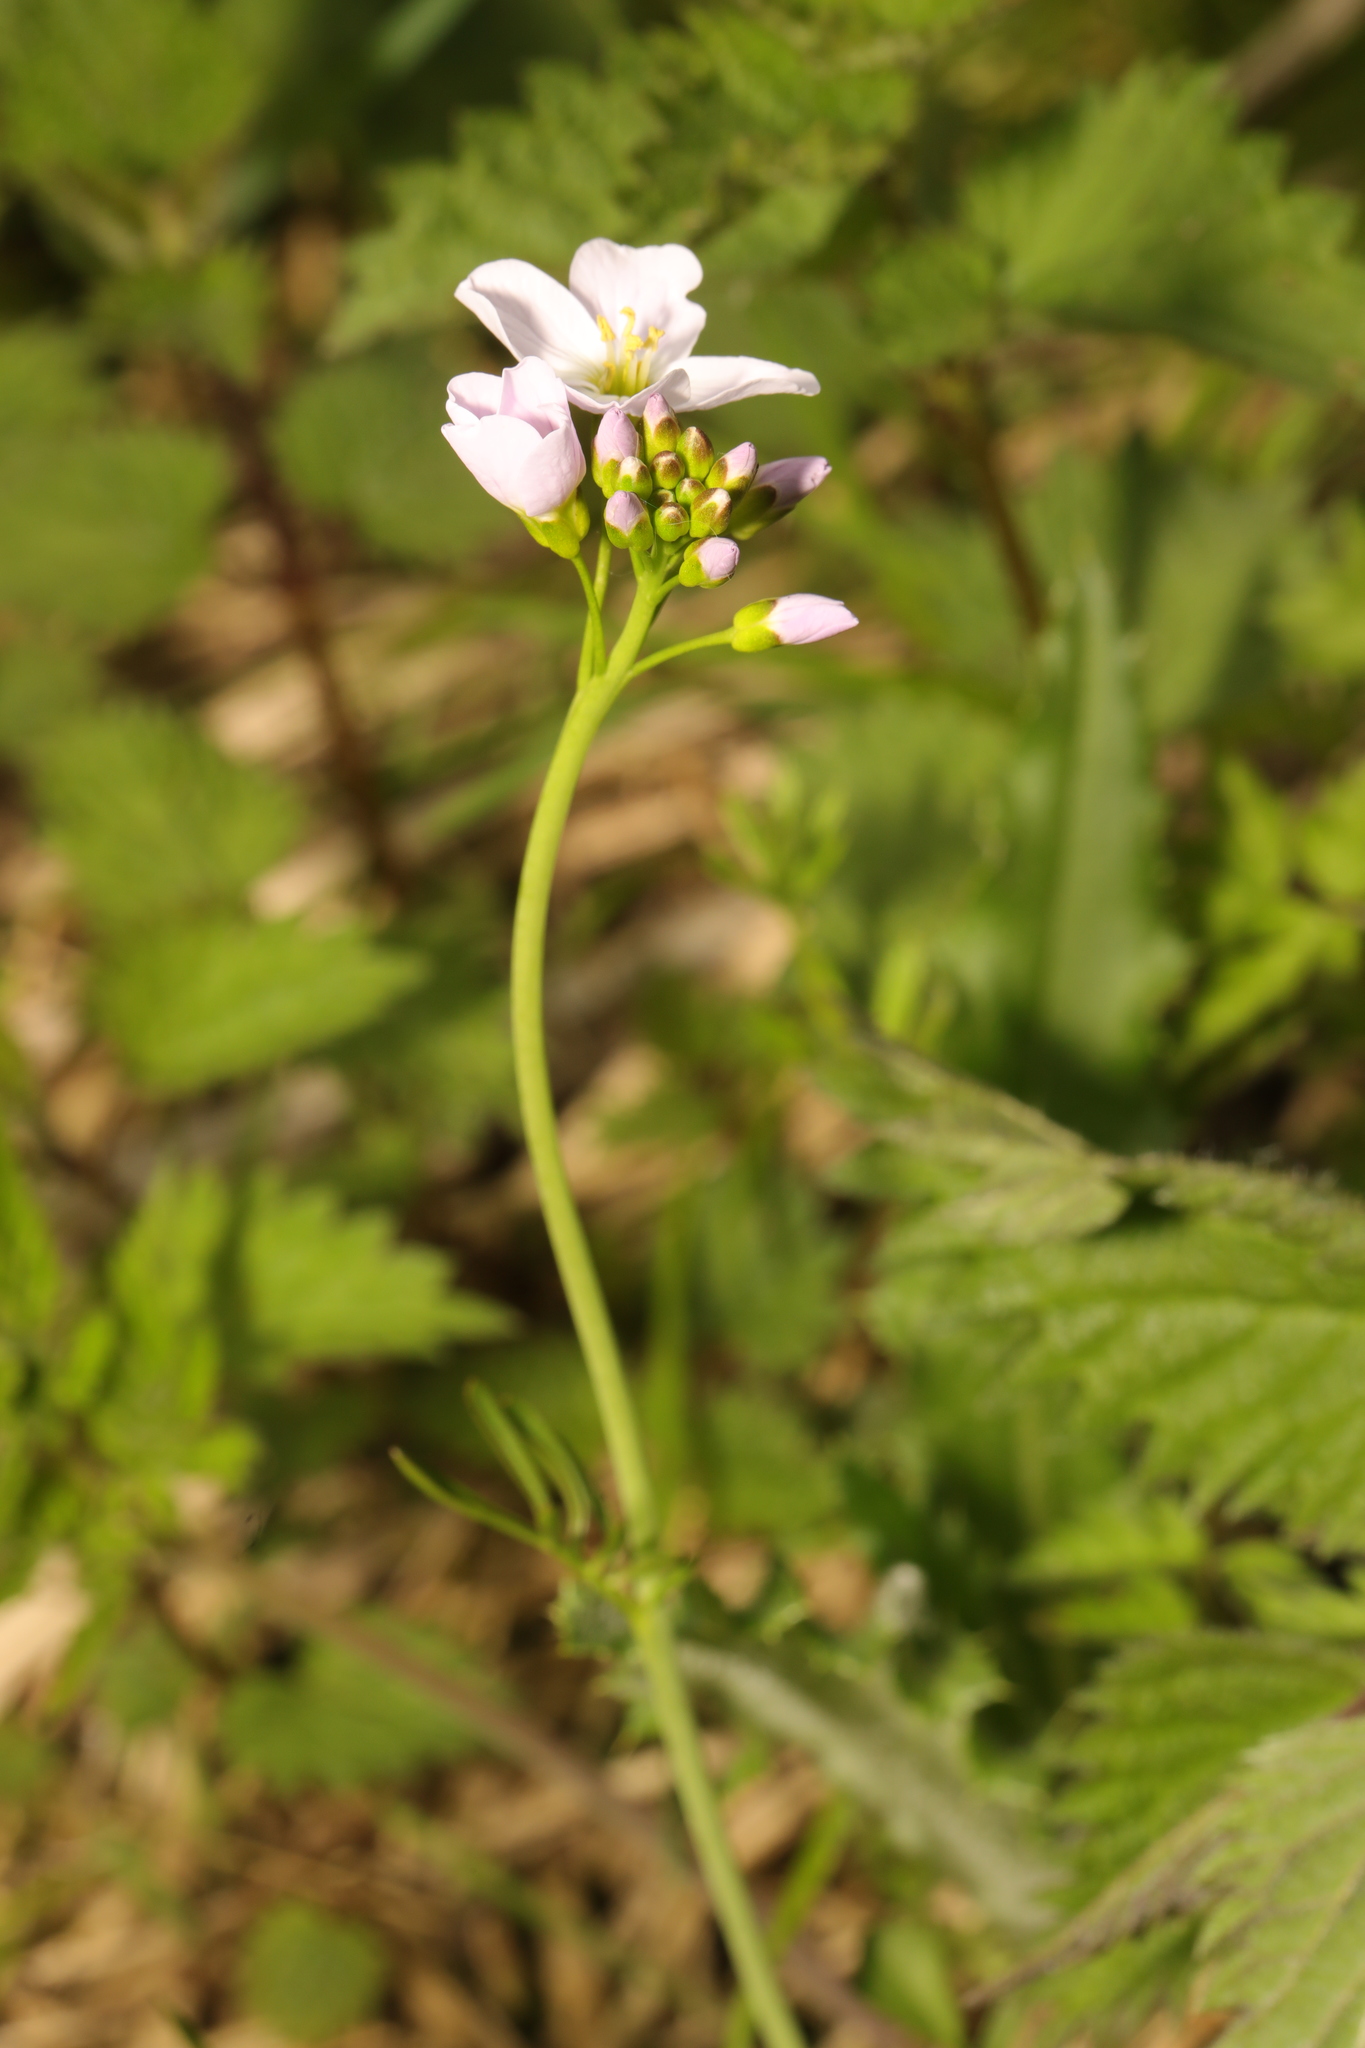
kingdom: Plantae
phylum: Tracheophyta
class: Magnoliopsida
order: Brassicales
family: Brassicaceae
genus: Cardamine
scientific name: Cardamine pratensis
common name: Cuckoo flower
